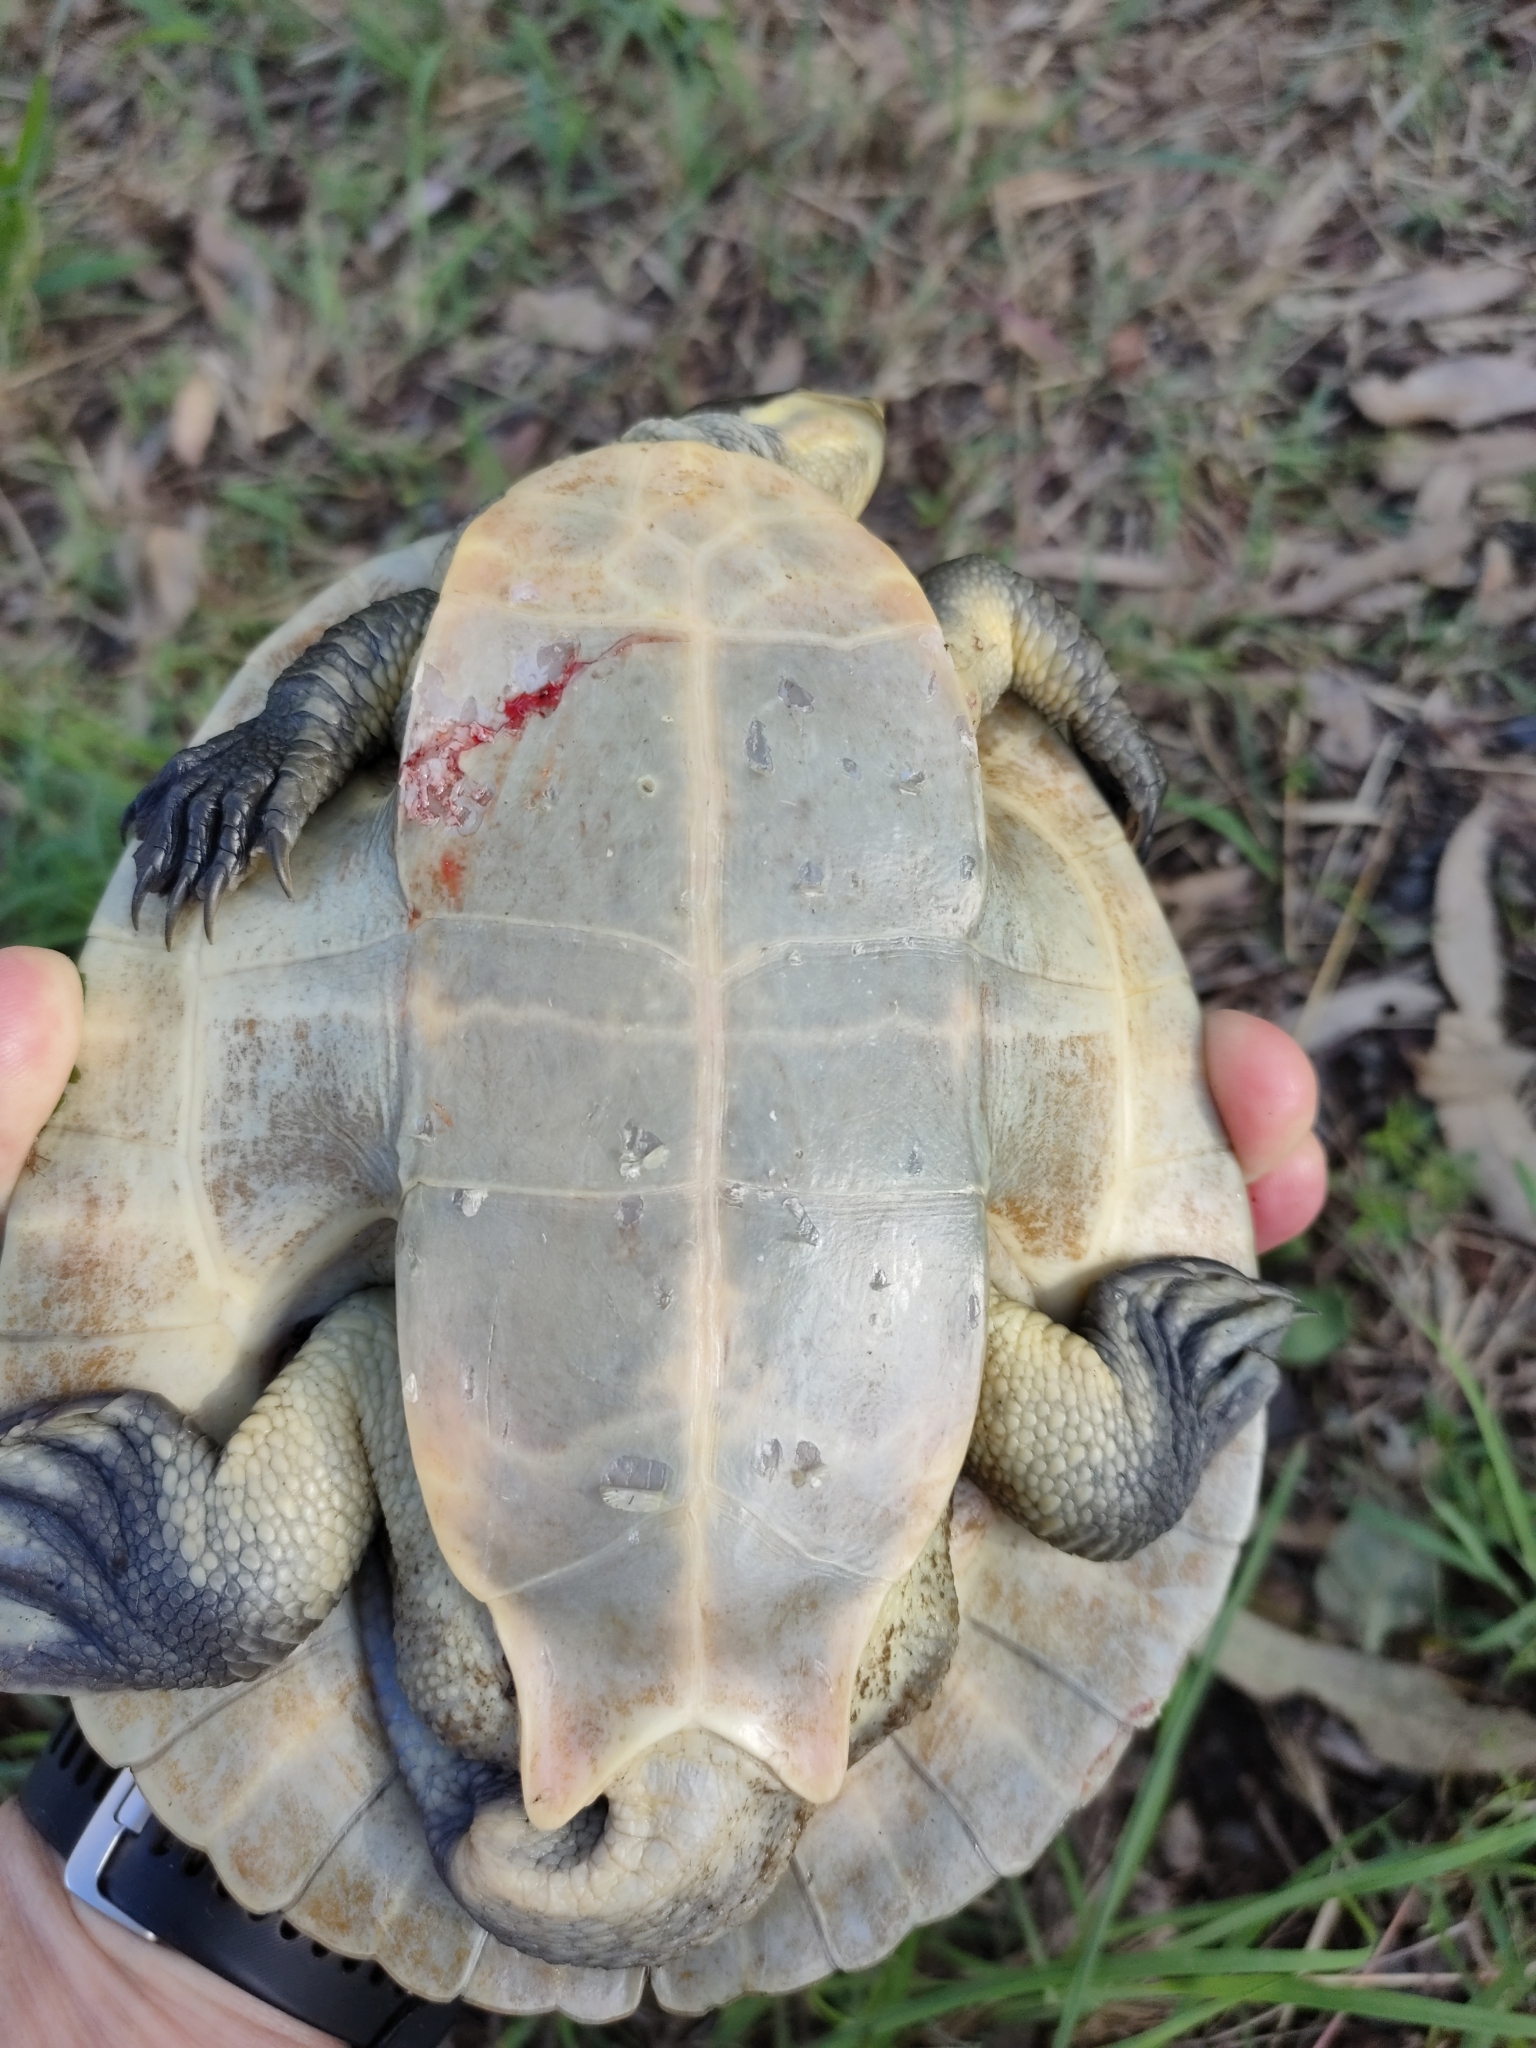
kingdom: Animalia
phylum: Chordata
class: Testudines
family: Chelidae
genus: Emydura
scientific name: Emydura macquarii
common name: Murray river turtle
